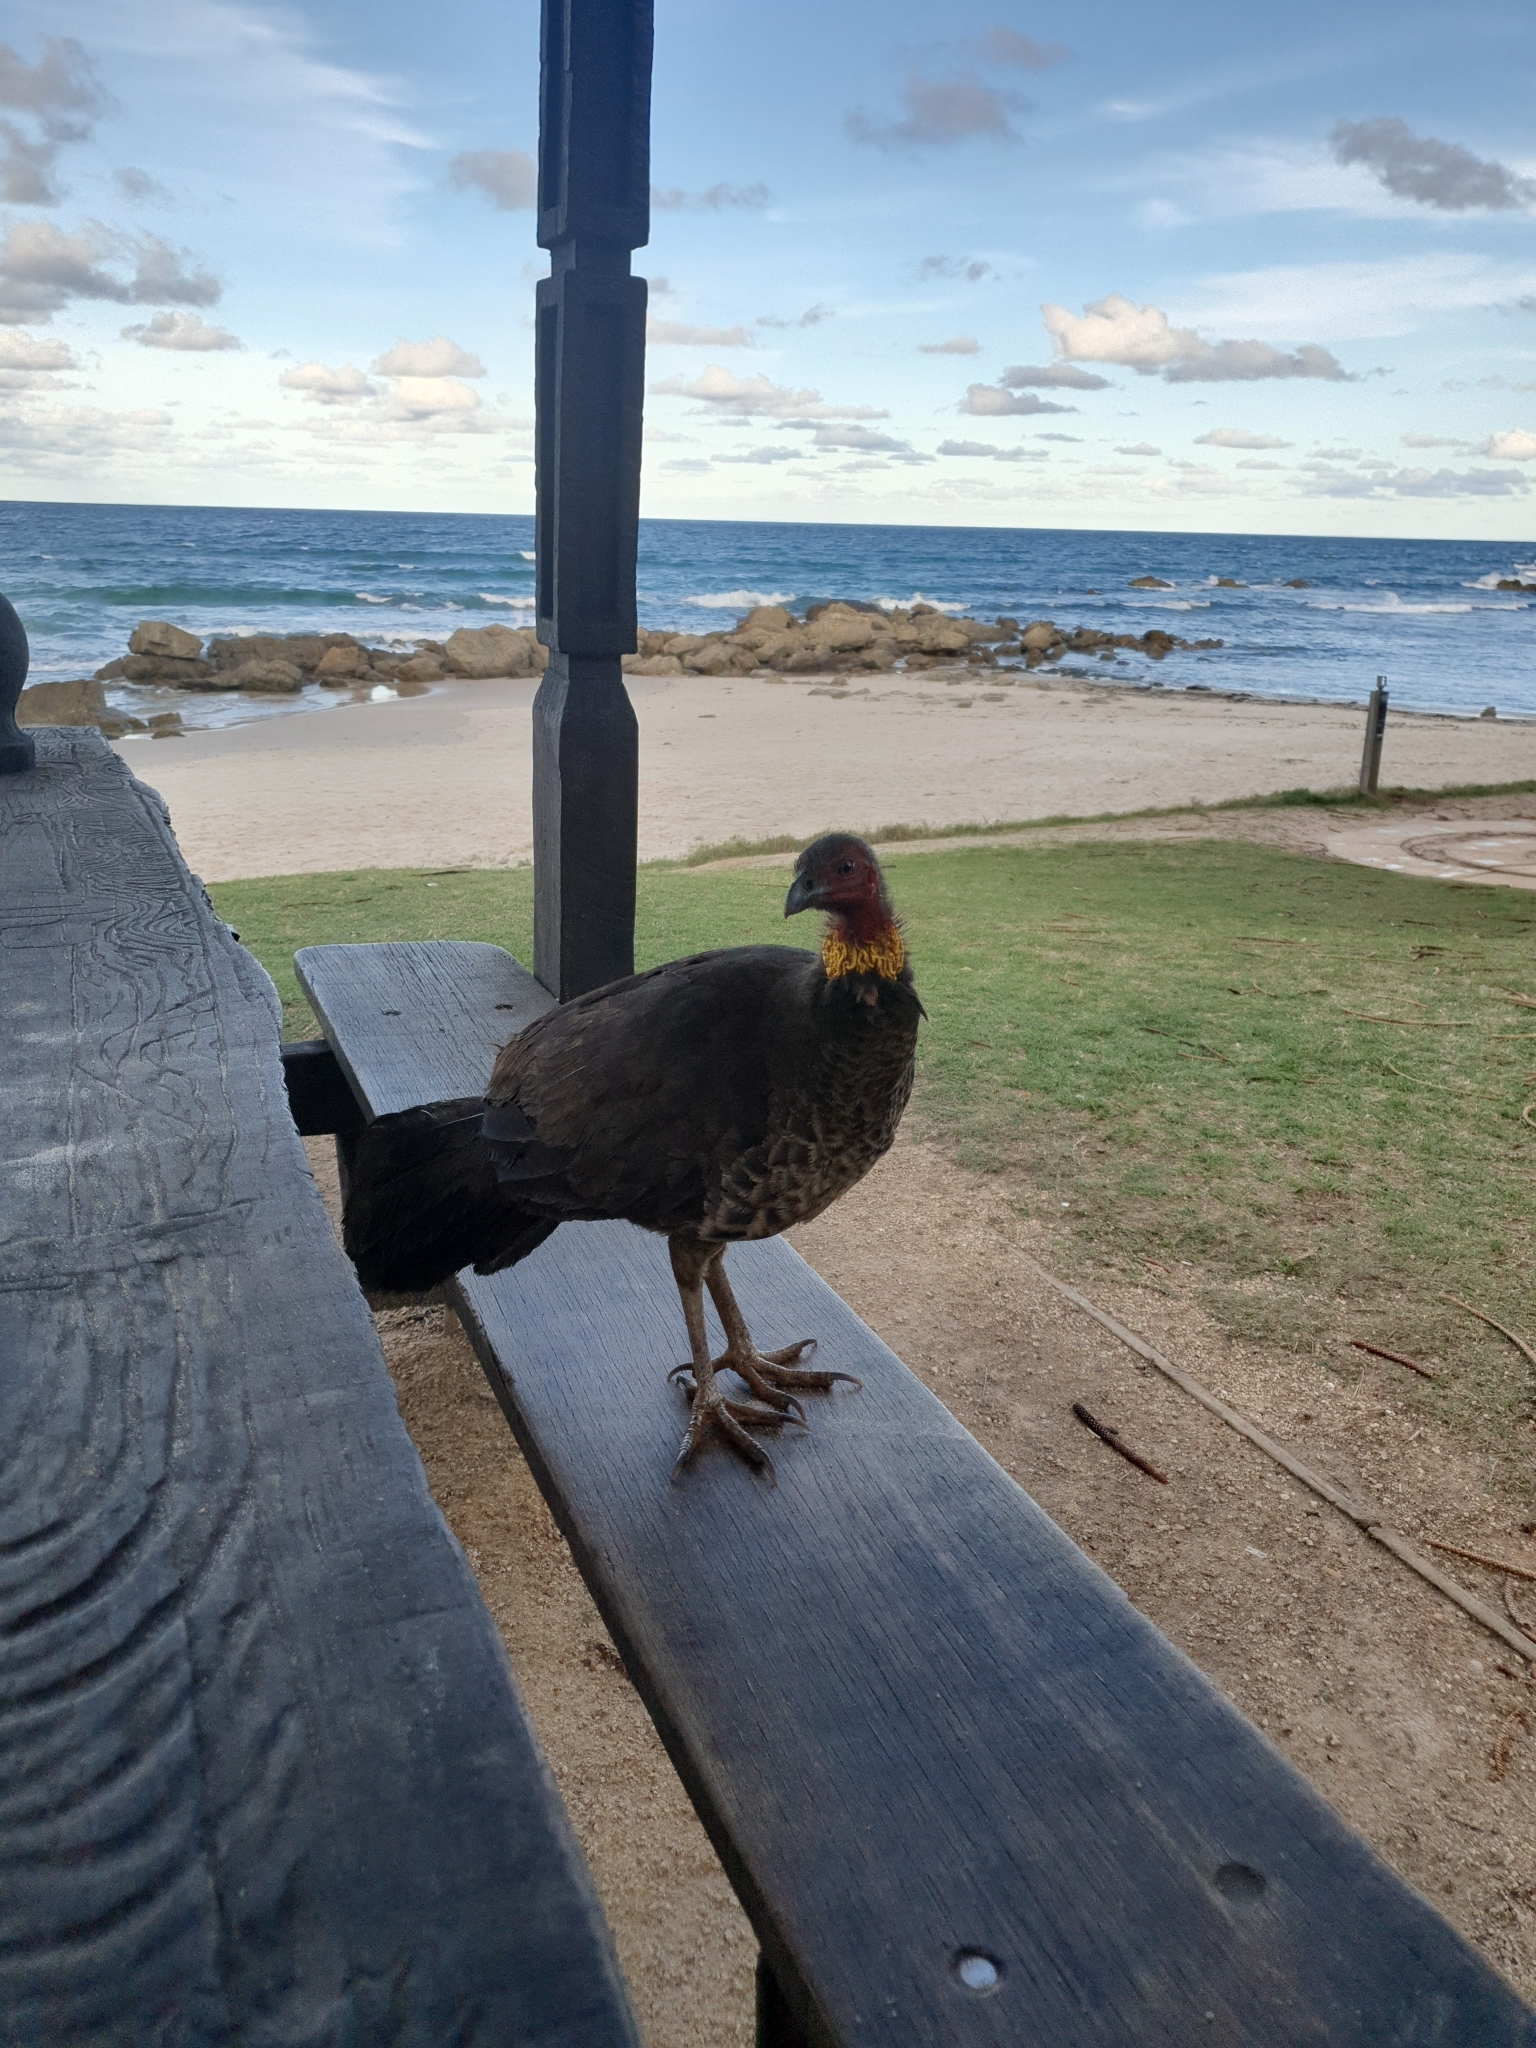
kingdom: Animalia
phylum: Chordata
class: Aves
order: Galliformes
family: Megapodiidae
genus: Alectura
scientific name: Alectura lathami
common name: Australian brushturkey
